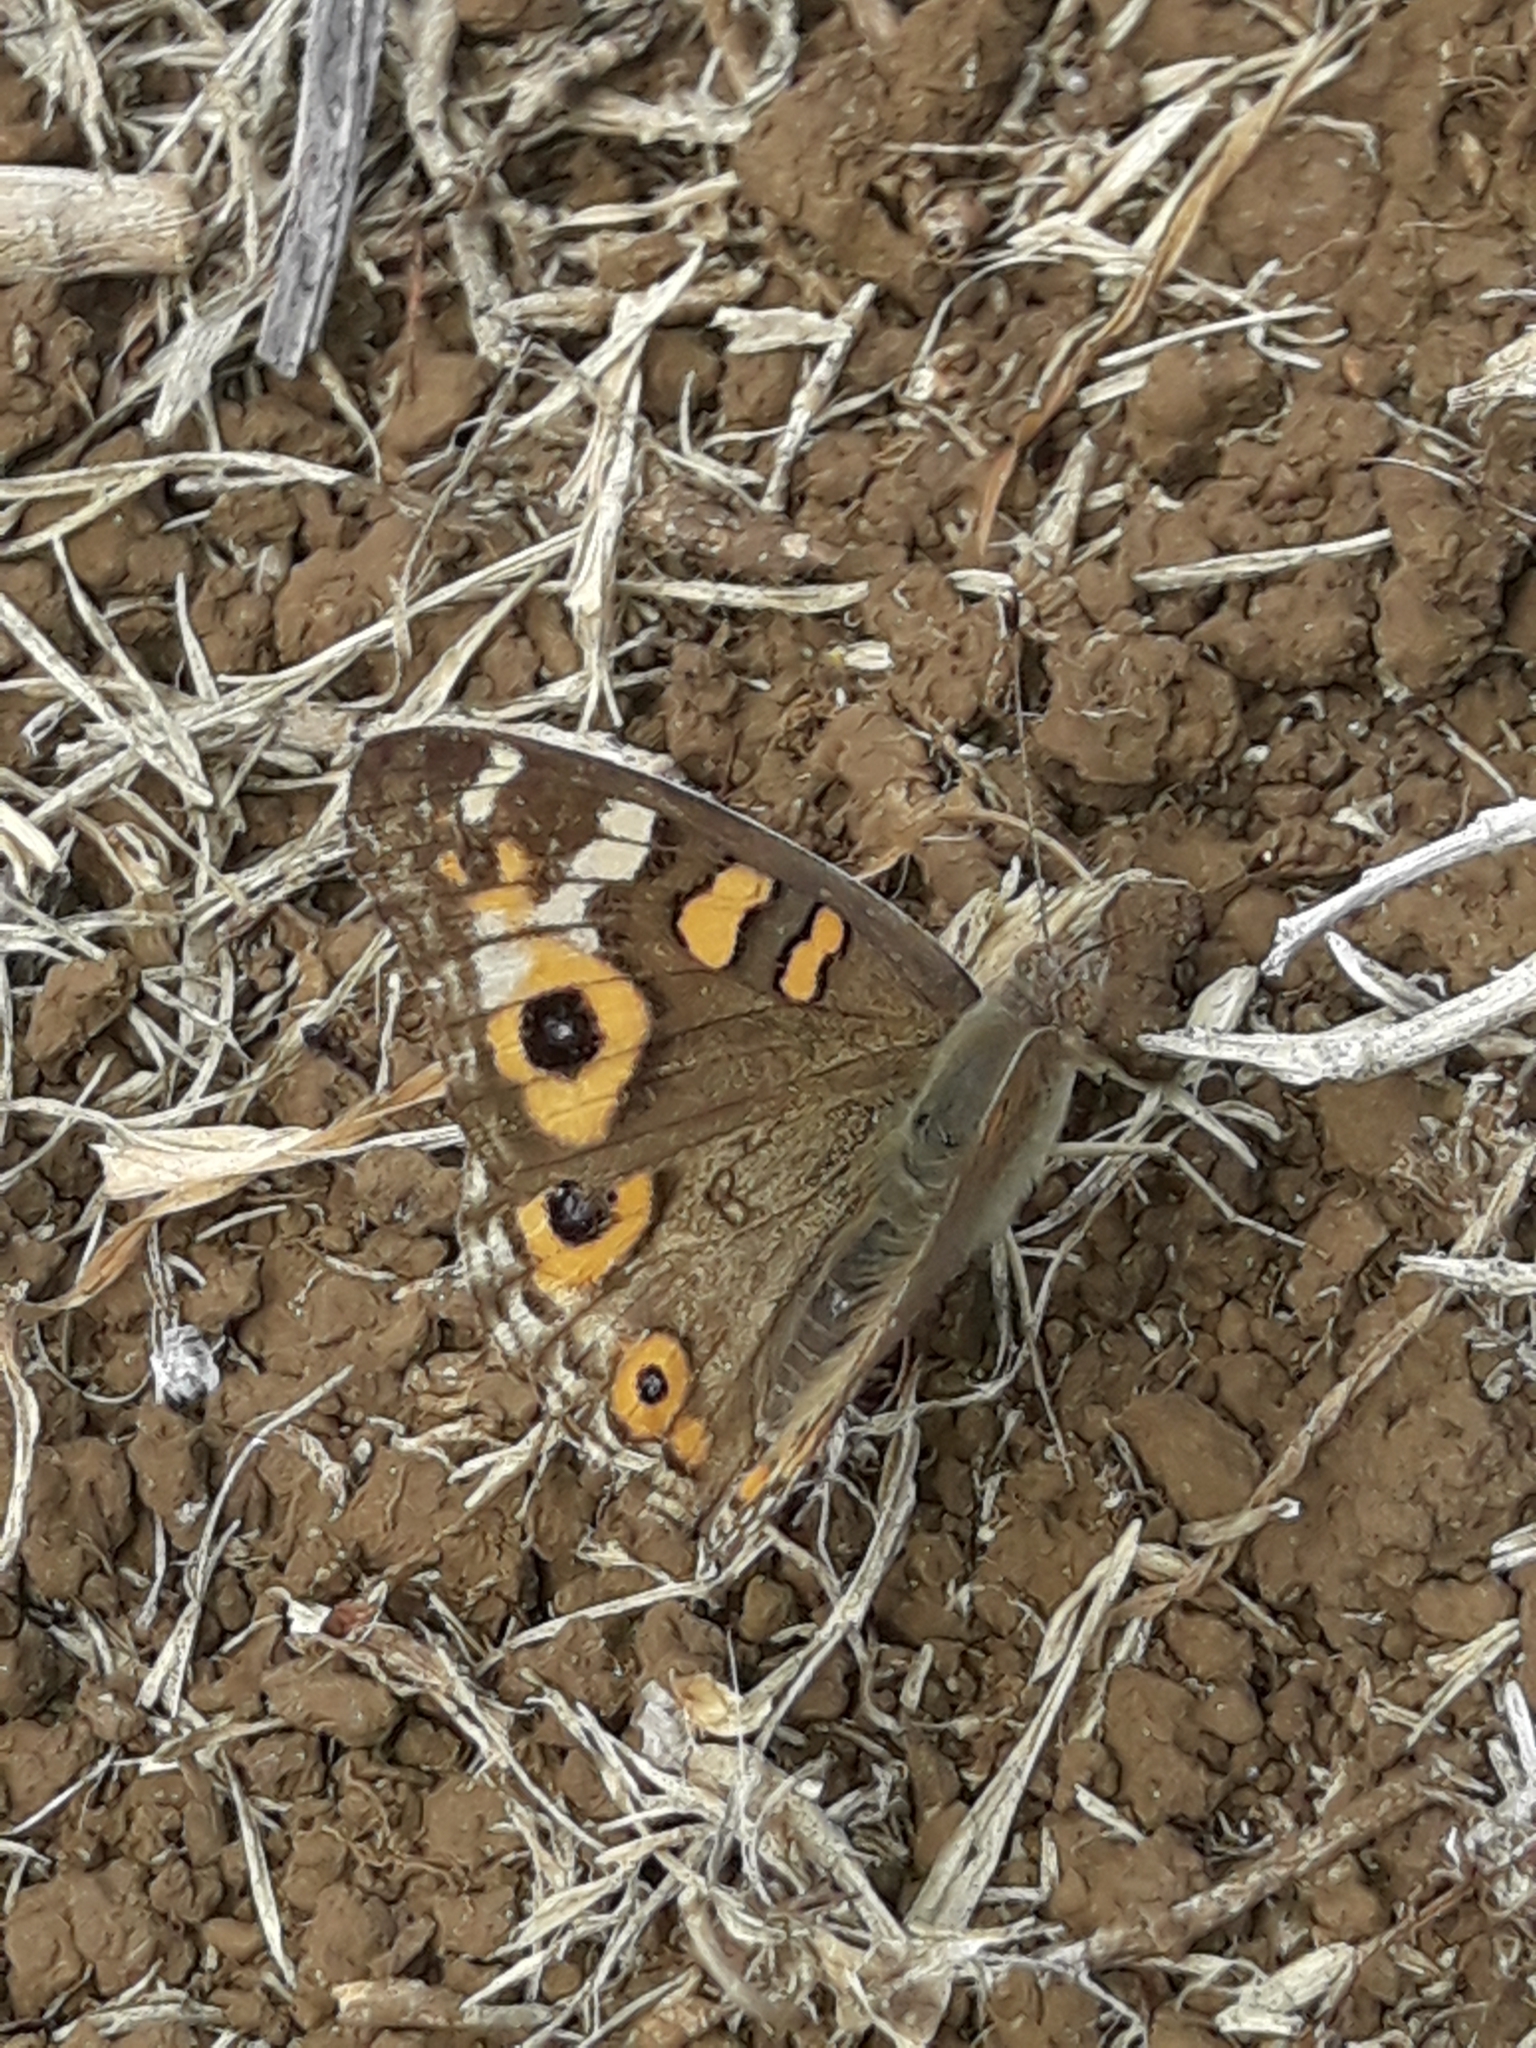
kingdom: Animalia
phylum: Arthropoda
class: Insecta
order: Lepidoptera
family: Nymphalidae
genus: Junonia
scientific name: Junonia villida
